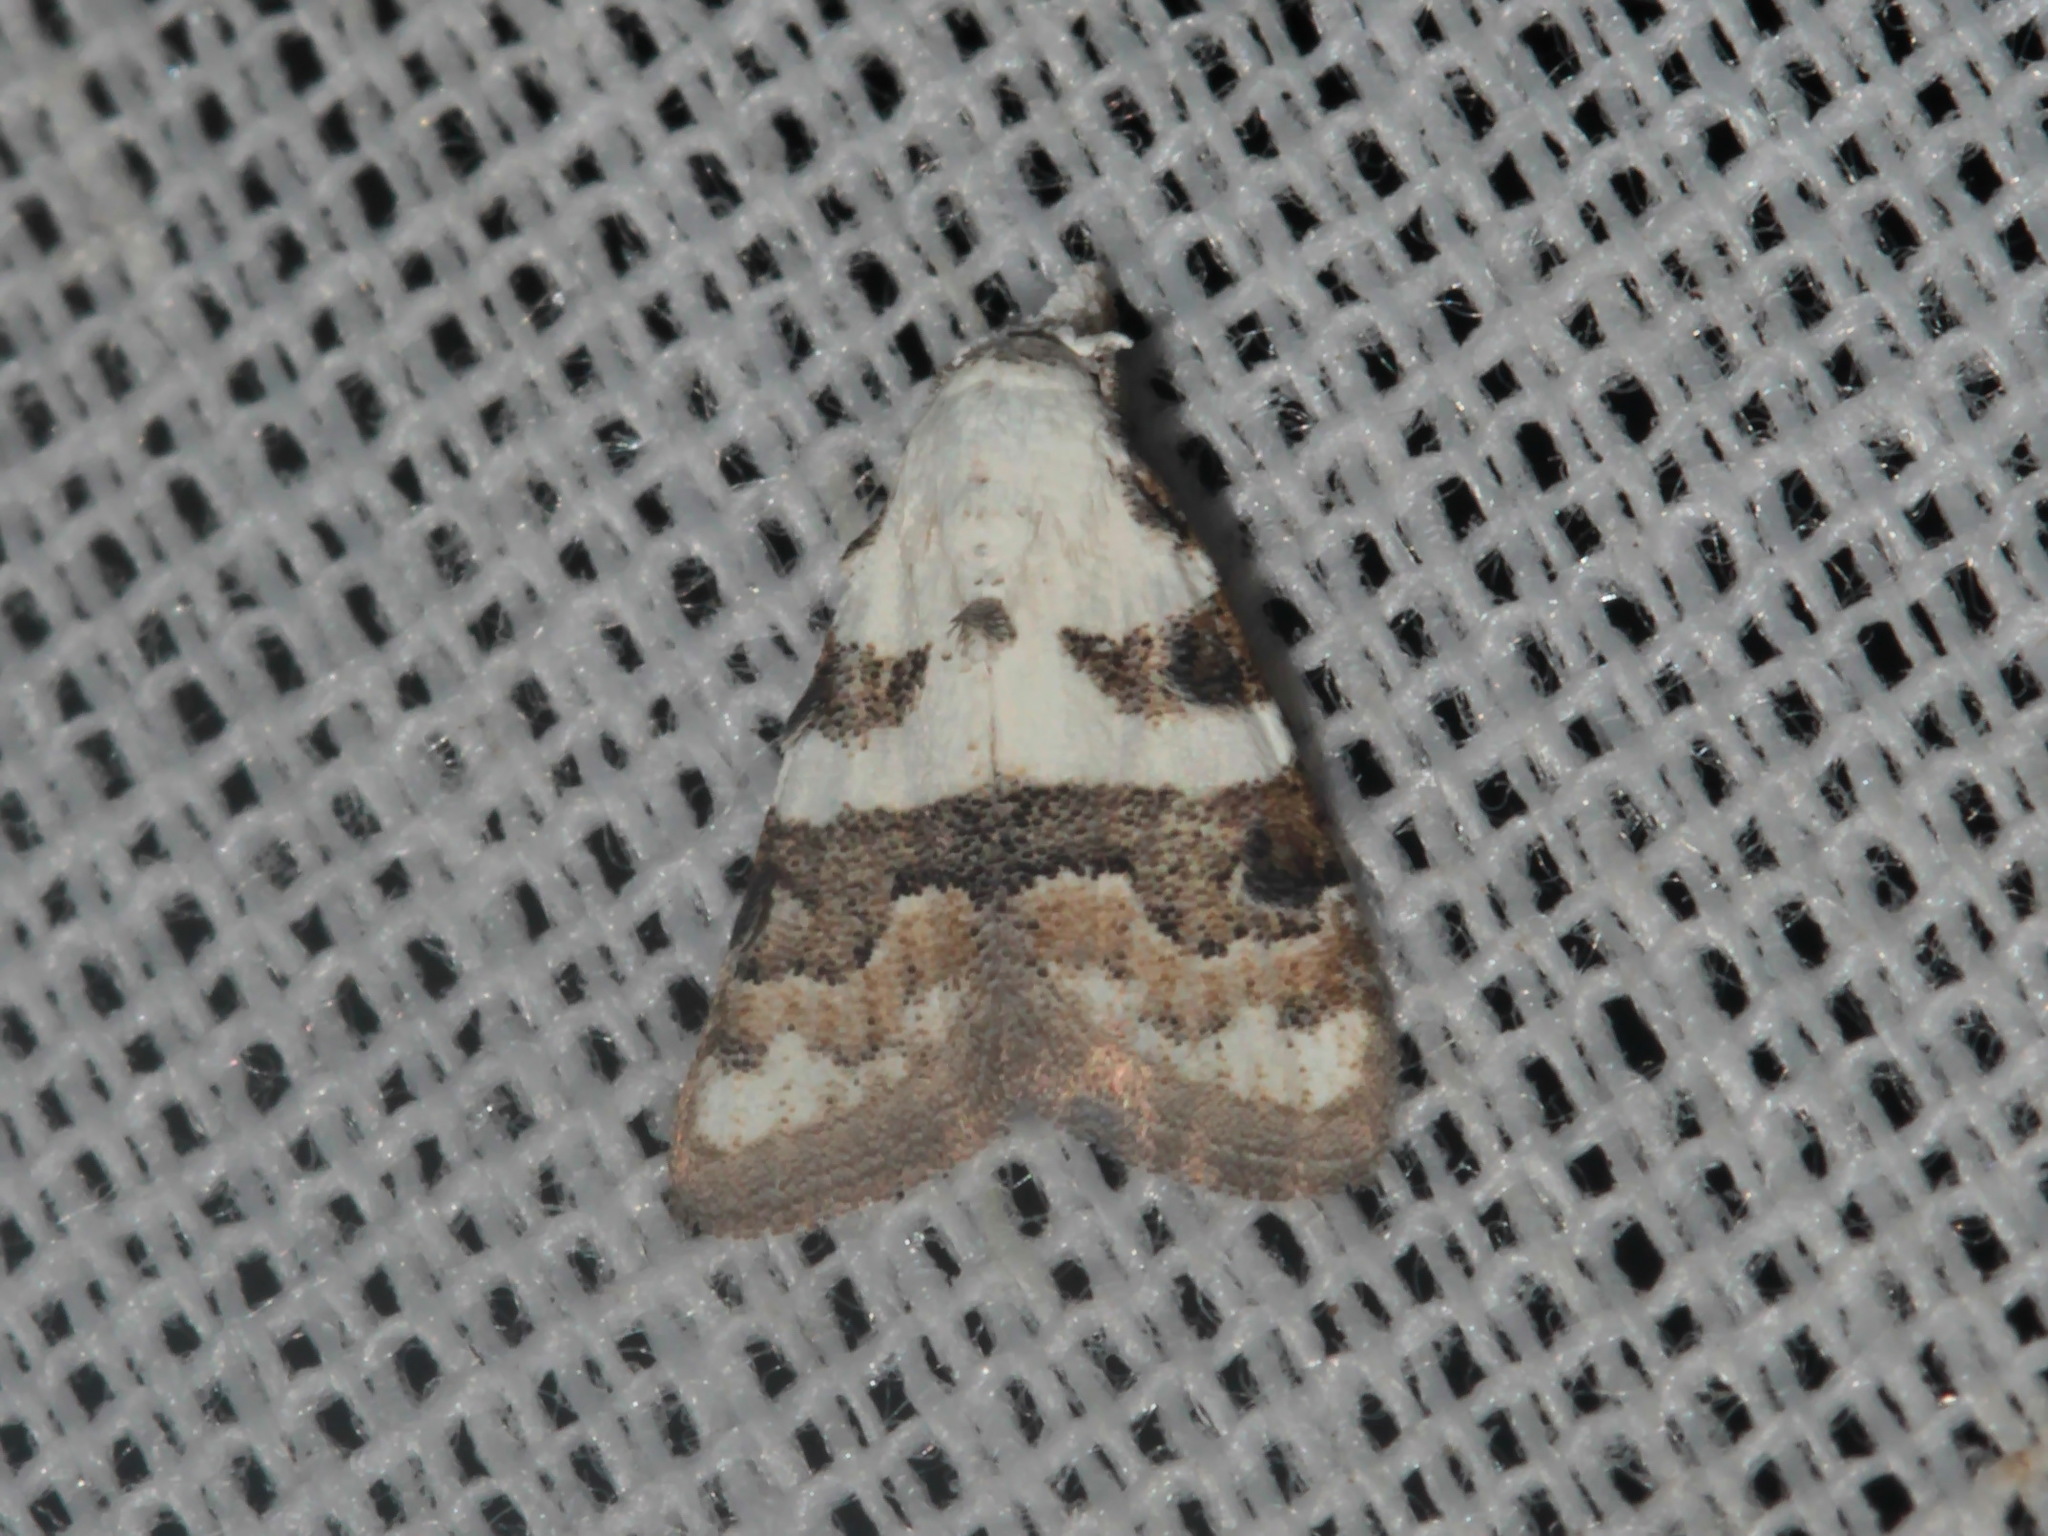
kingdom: Animalia
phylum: Arthropoda
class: Insecta
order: Lepidoptera
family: Nolidae
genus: Nola
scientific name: Nola lucidalis
